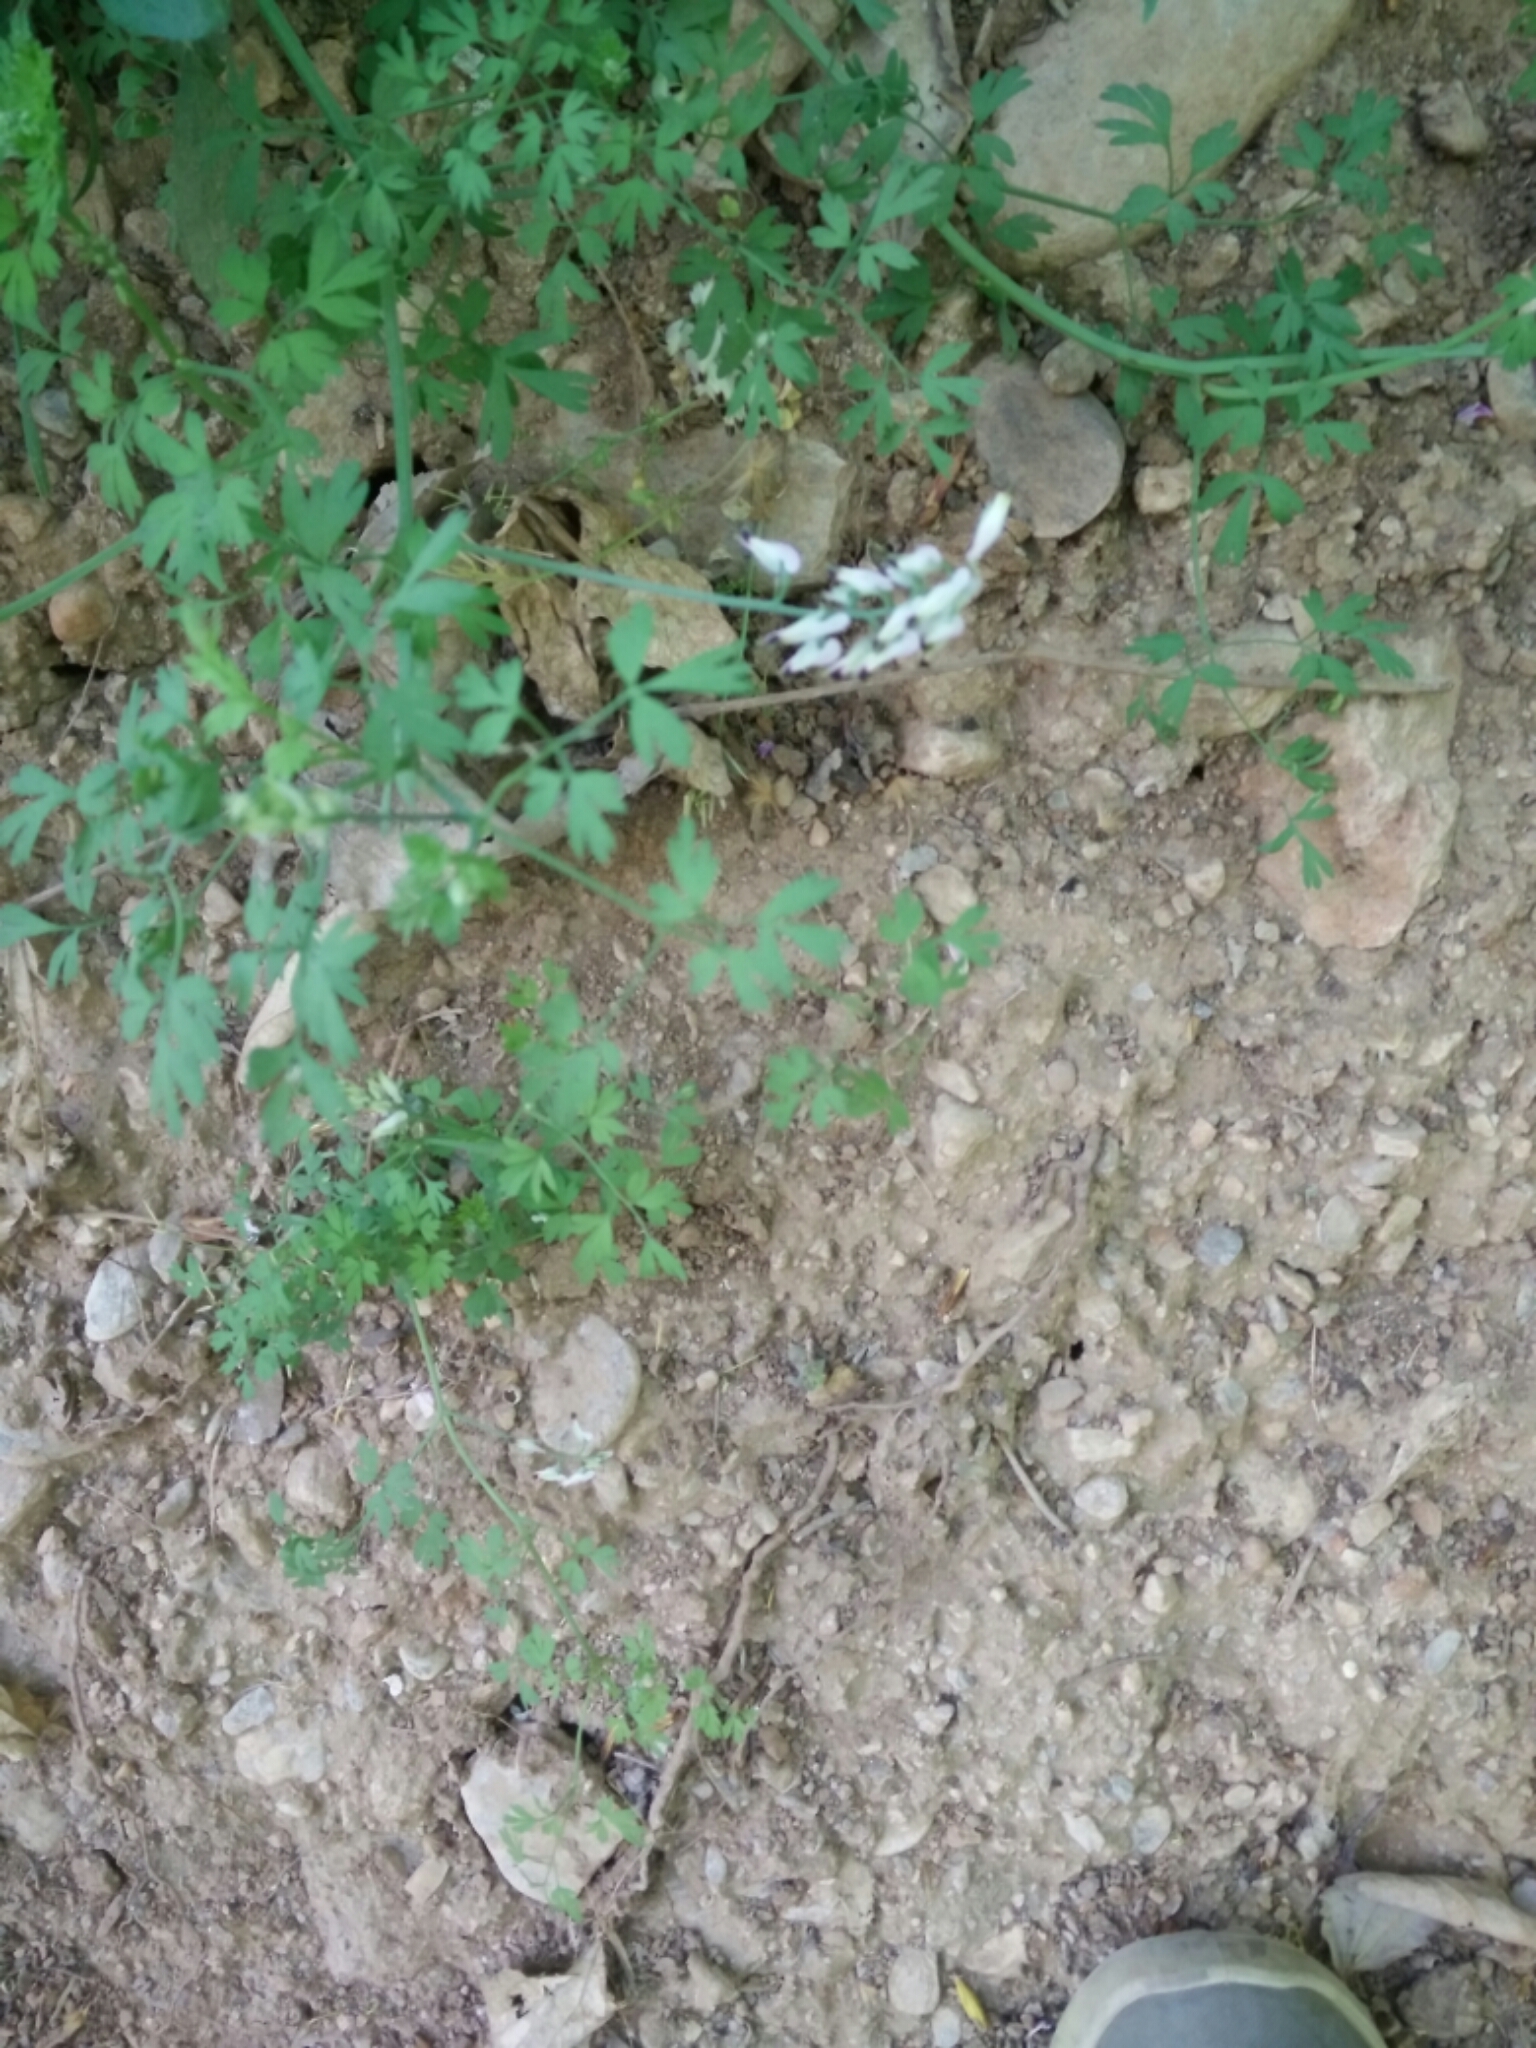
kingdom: Plantae
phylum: Tracheophyta
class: Magnoliopsida
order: Ranunculales
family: Papaveraceae
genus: Fumaria
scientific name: Fumaria capreolata
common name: White ramping-fumitory
